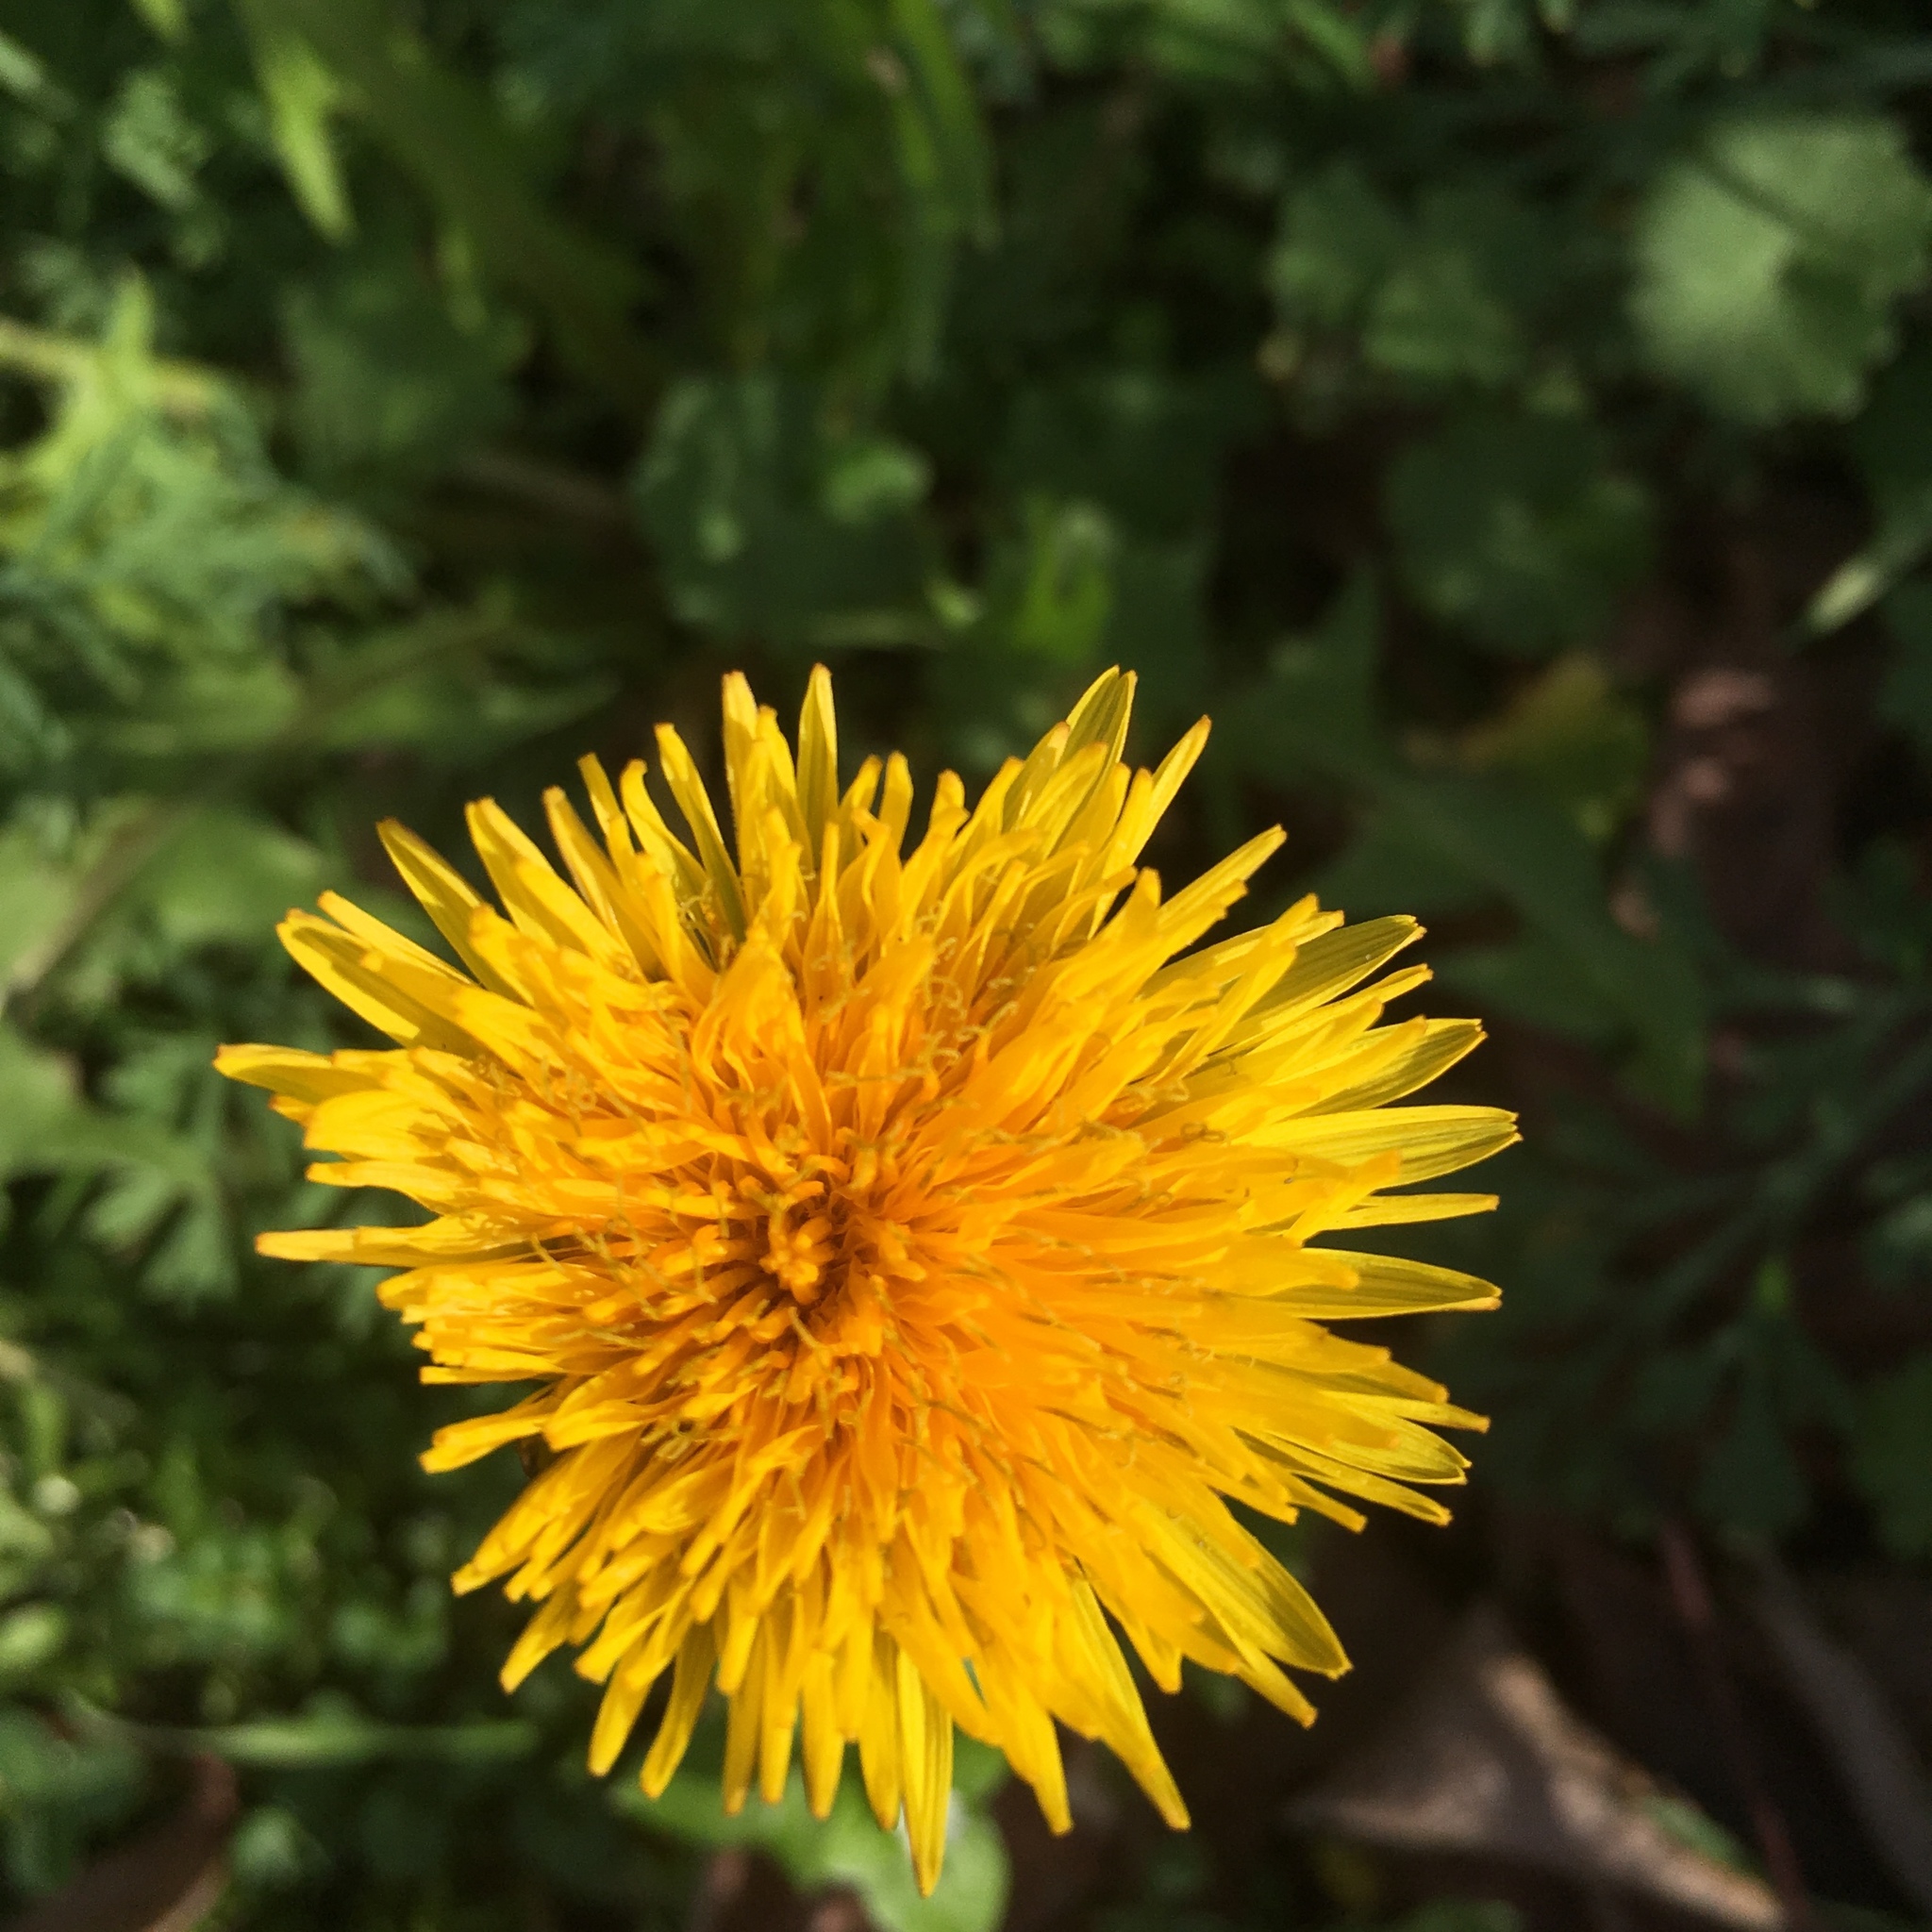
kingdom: Plantae
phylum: Tracheophyta
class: Magnoliopsida
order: Asterales
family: Asteraceae
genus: Taraxacum
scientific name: Taraxacum officinale
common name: Common dandelion
